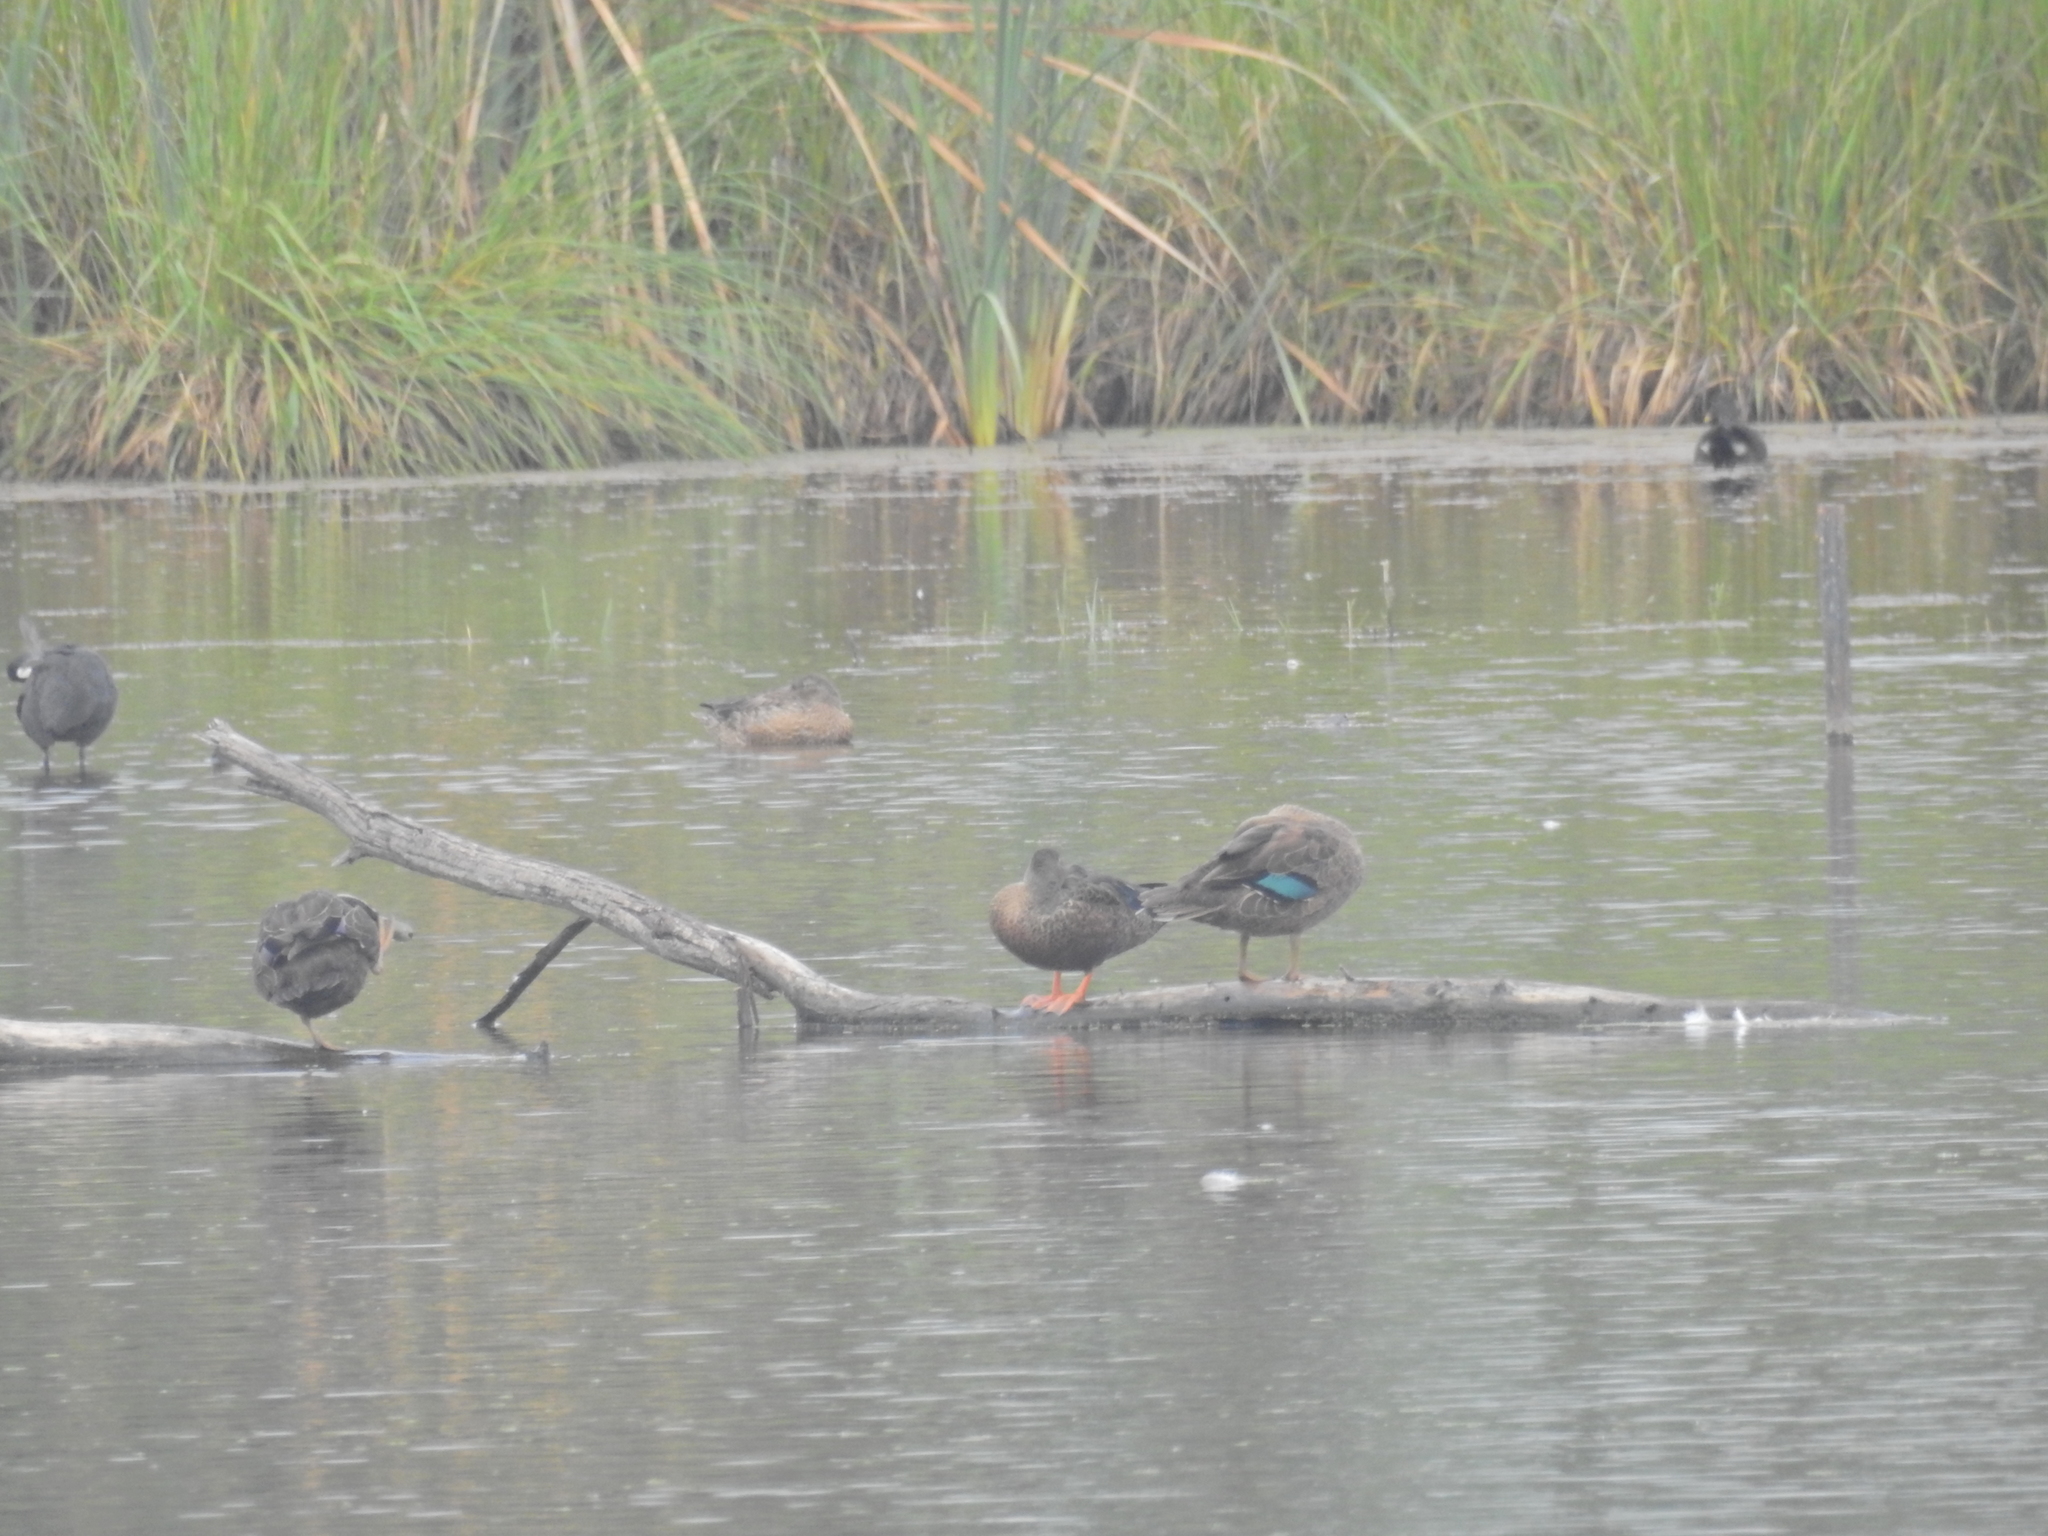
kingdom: Animalia
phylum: Chordata
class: Aves
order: Anseriformes
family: Anatidae
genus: Spatula
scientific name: Spatula rhynchotis
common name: Australian shoveler
